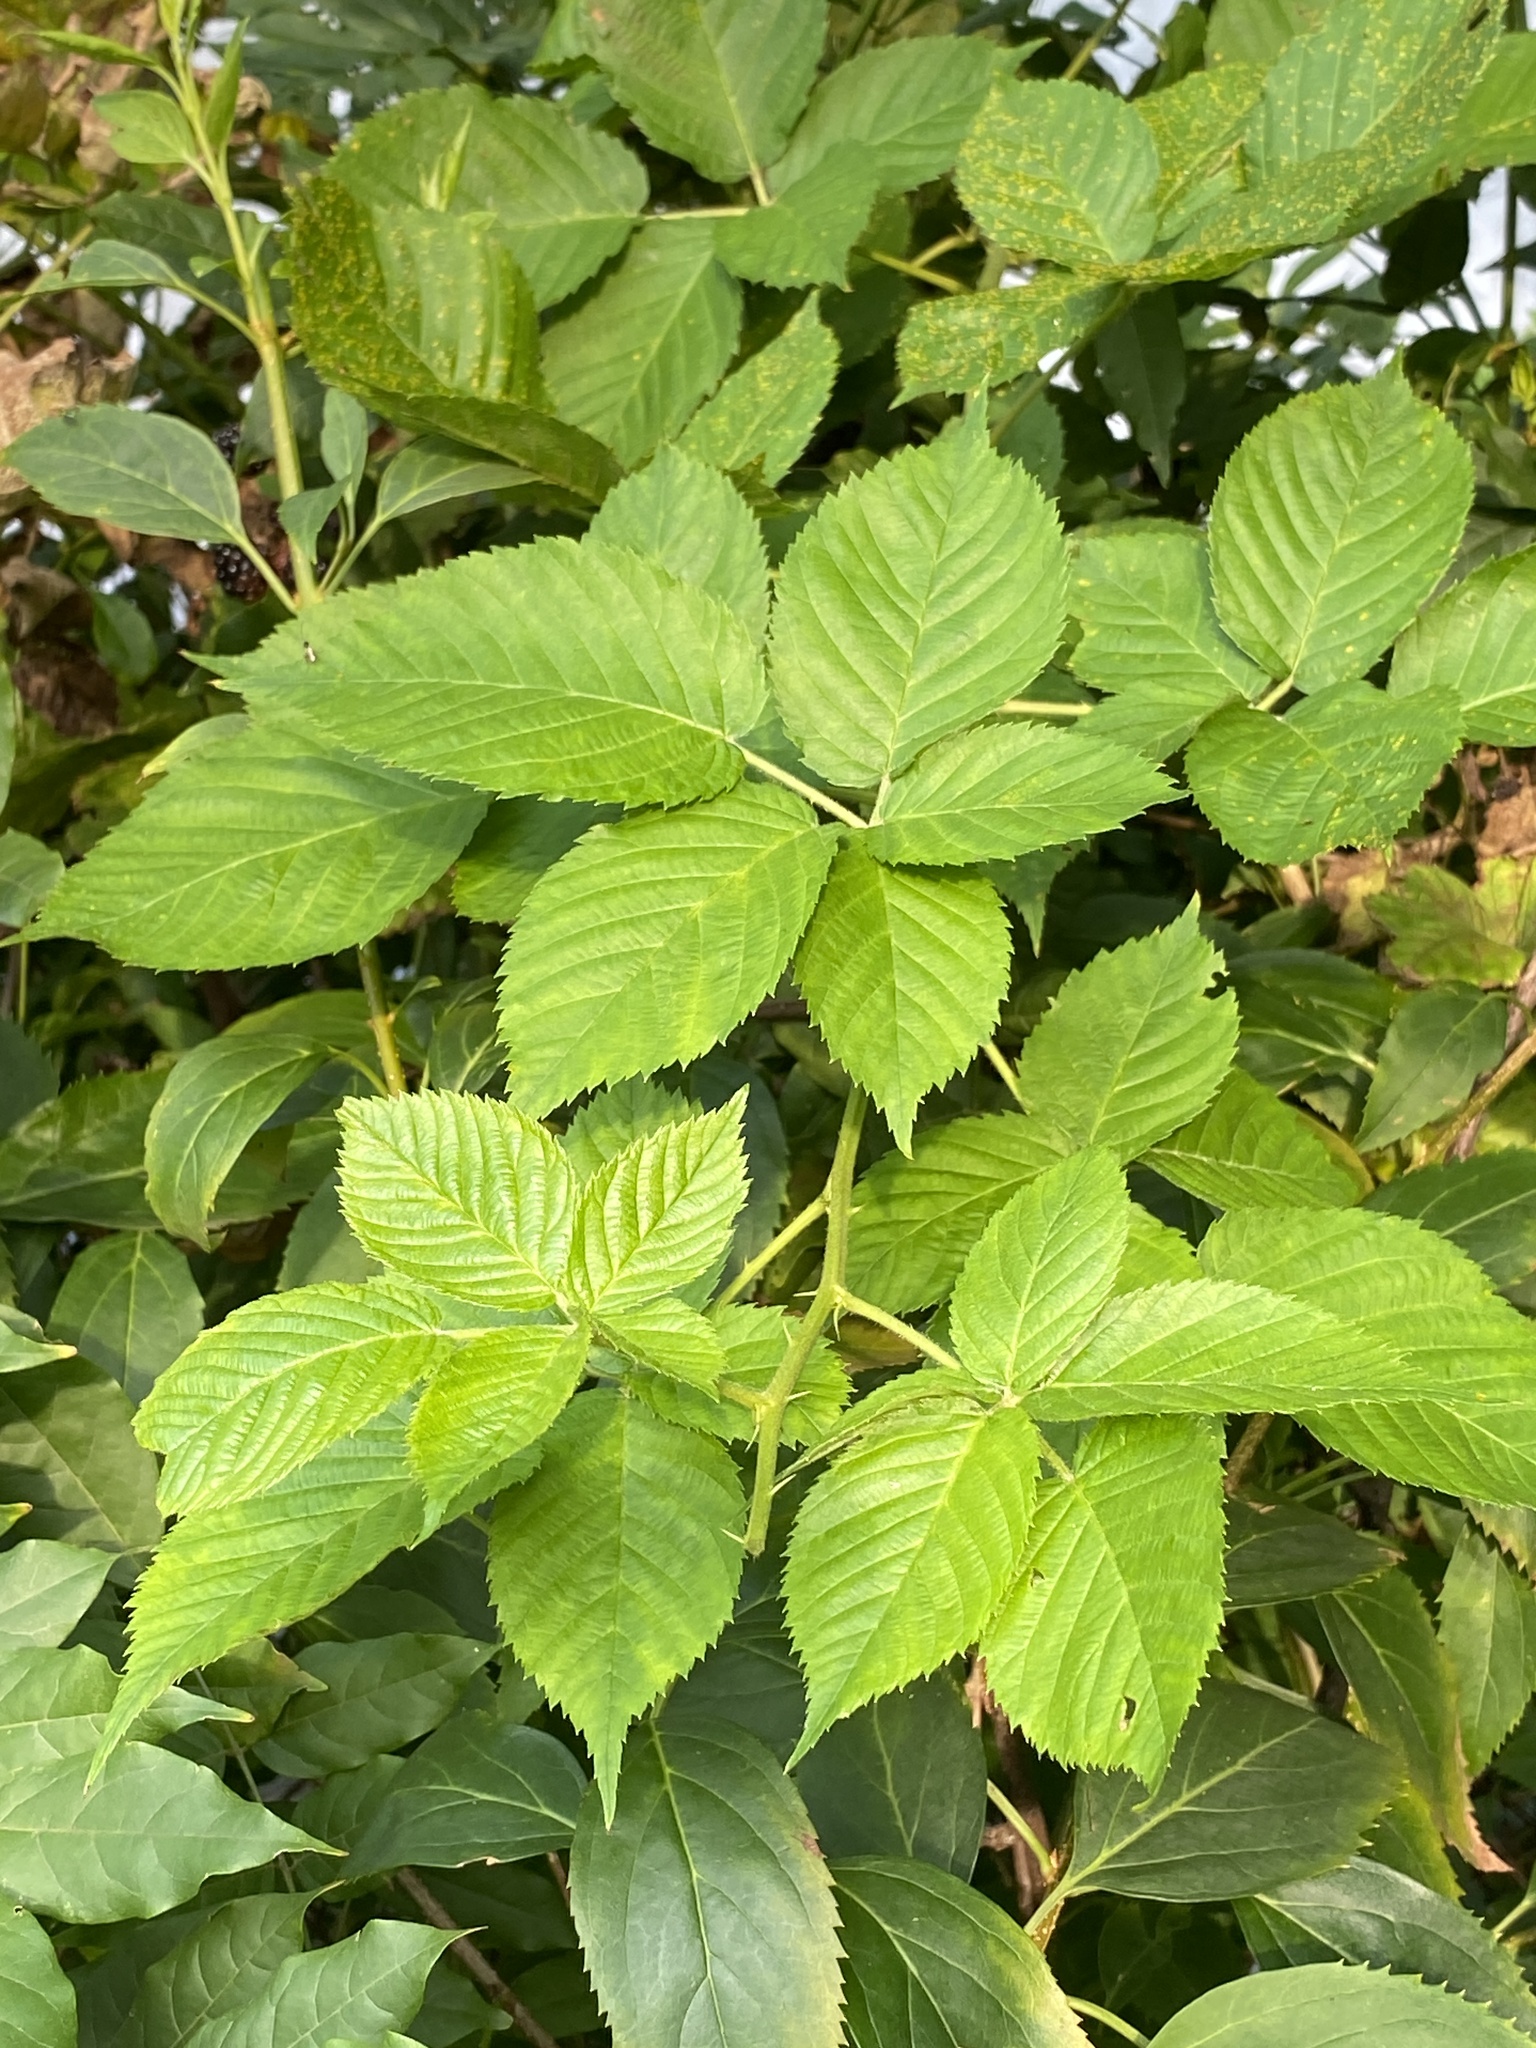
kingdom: Plantae
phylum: Tracheophyta
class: Magnoliopsida
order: Rosales
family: Rosaceae
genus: Rubus
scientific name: Rubus allegheniensis
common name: Allegheny blackberry
